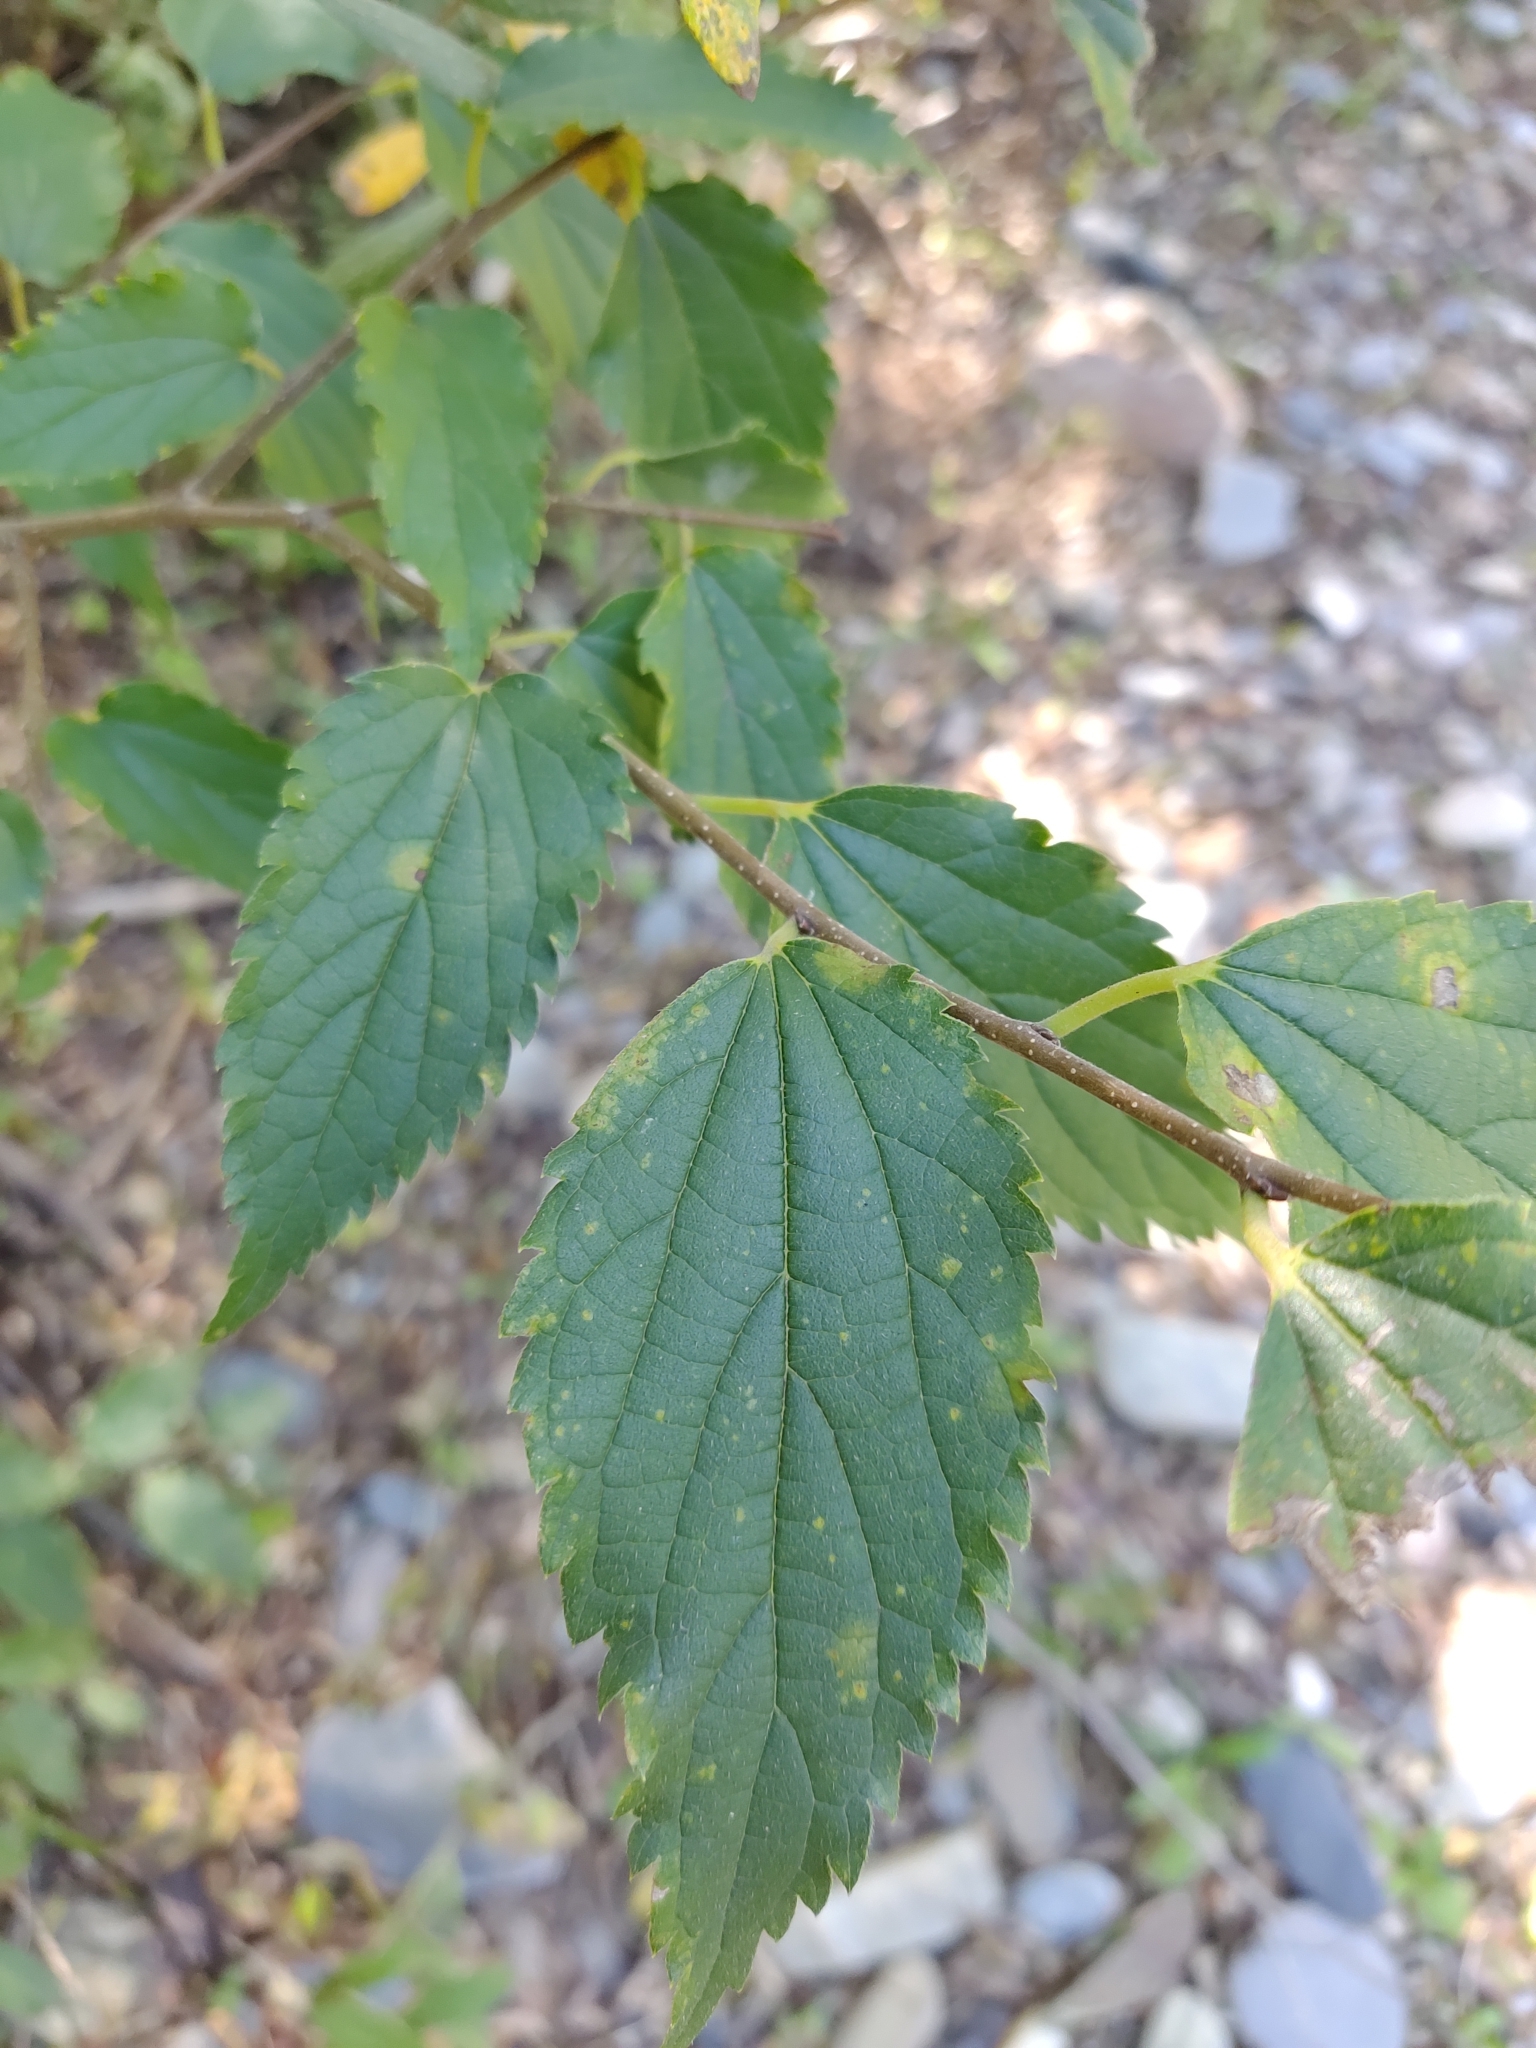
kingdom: Plantae
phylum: Tracheophyta
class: Magnoliopsida
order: Rosales
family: Cannabaceae
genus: Celtis
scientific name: Celtis australis
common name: European hackberry
